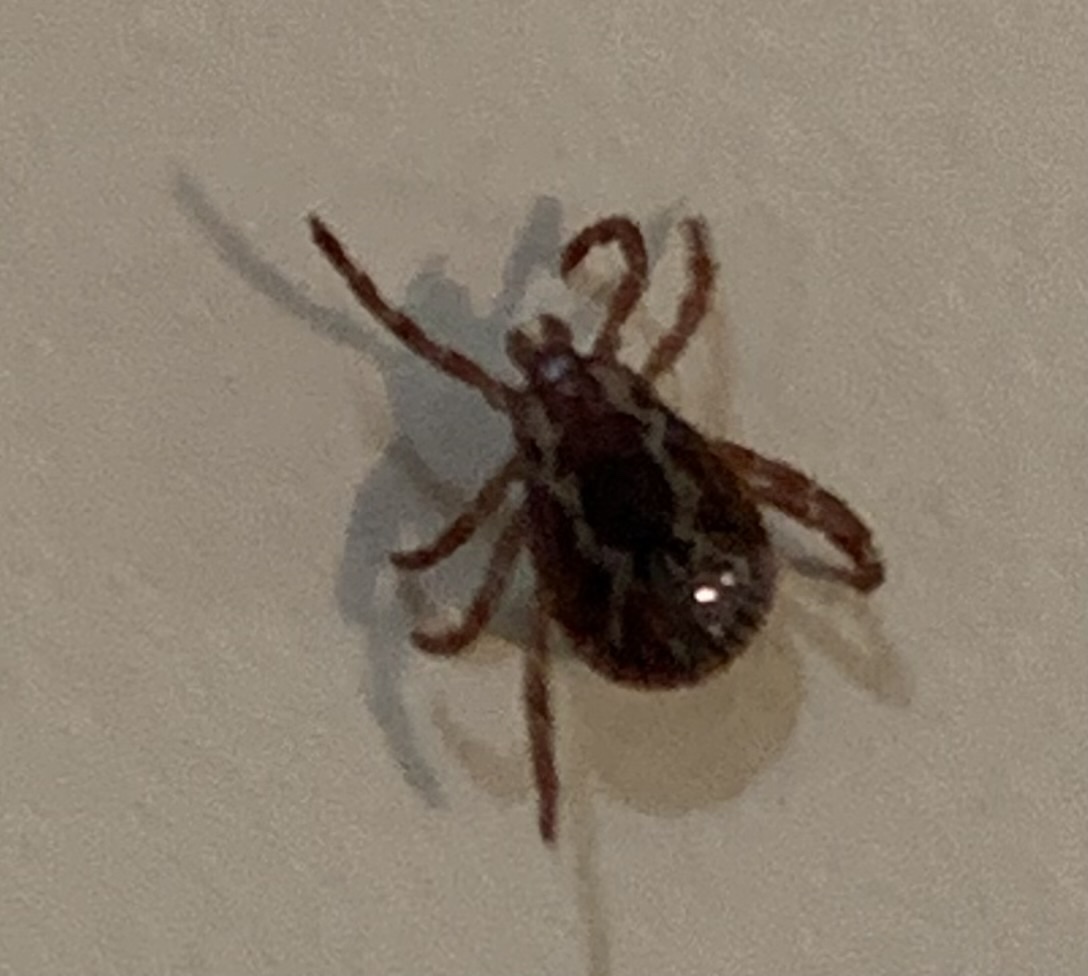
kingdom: Animalia
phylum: Arthropoda
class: Arachnida
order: Ixodida
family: Ixodidae
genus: Dermacentor
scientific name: Dermacentor variabilis
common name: American dog tick
